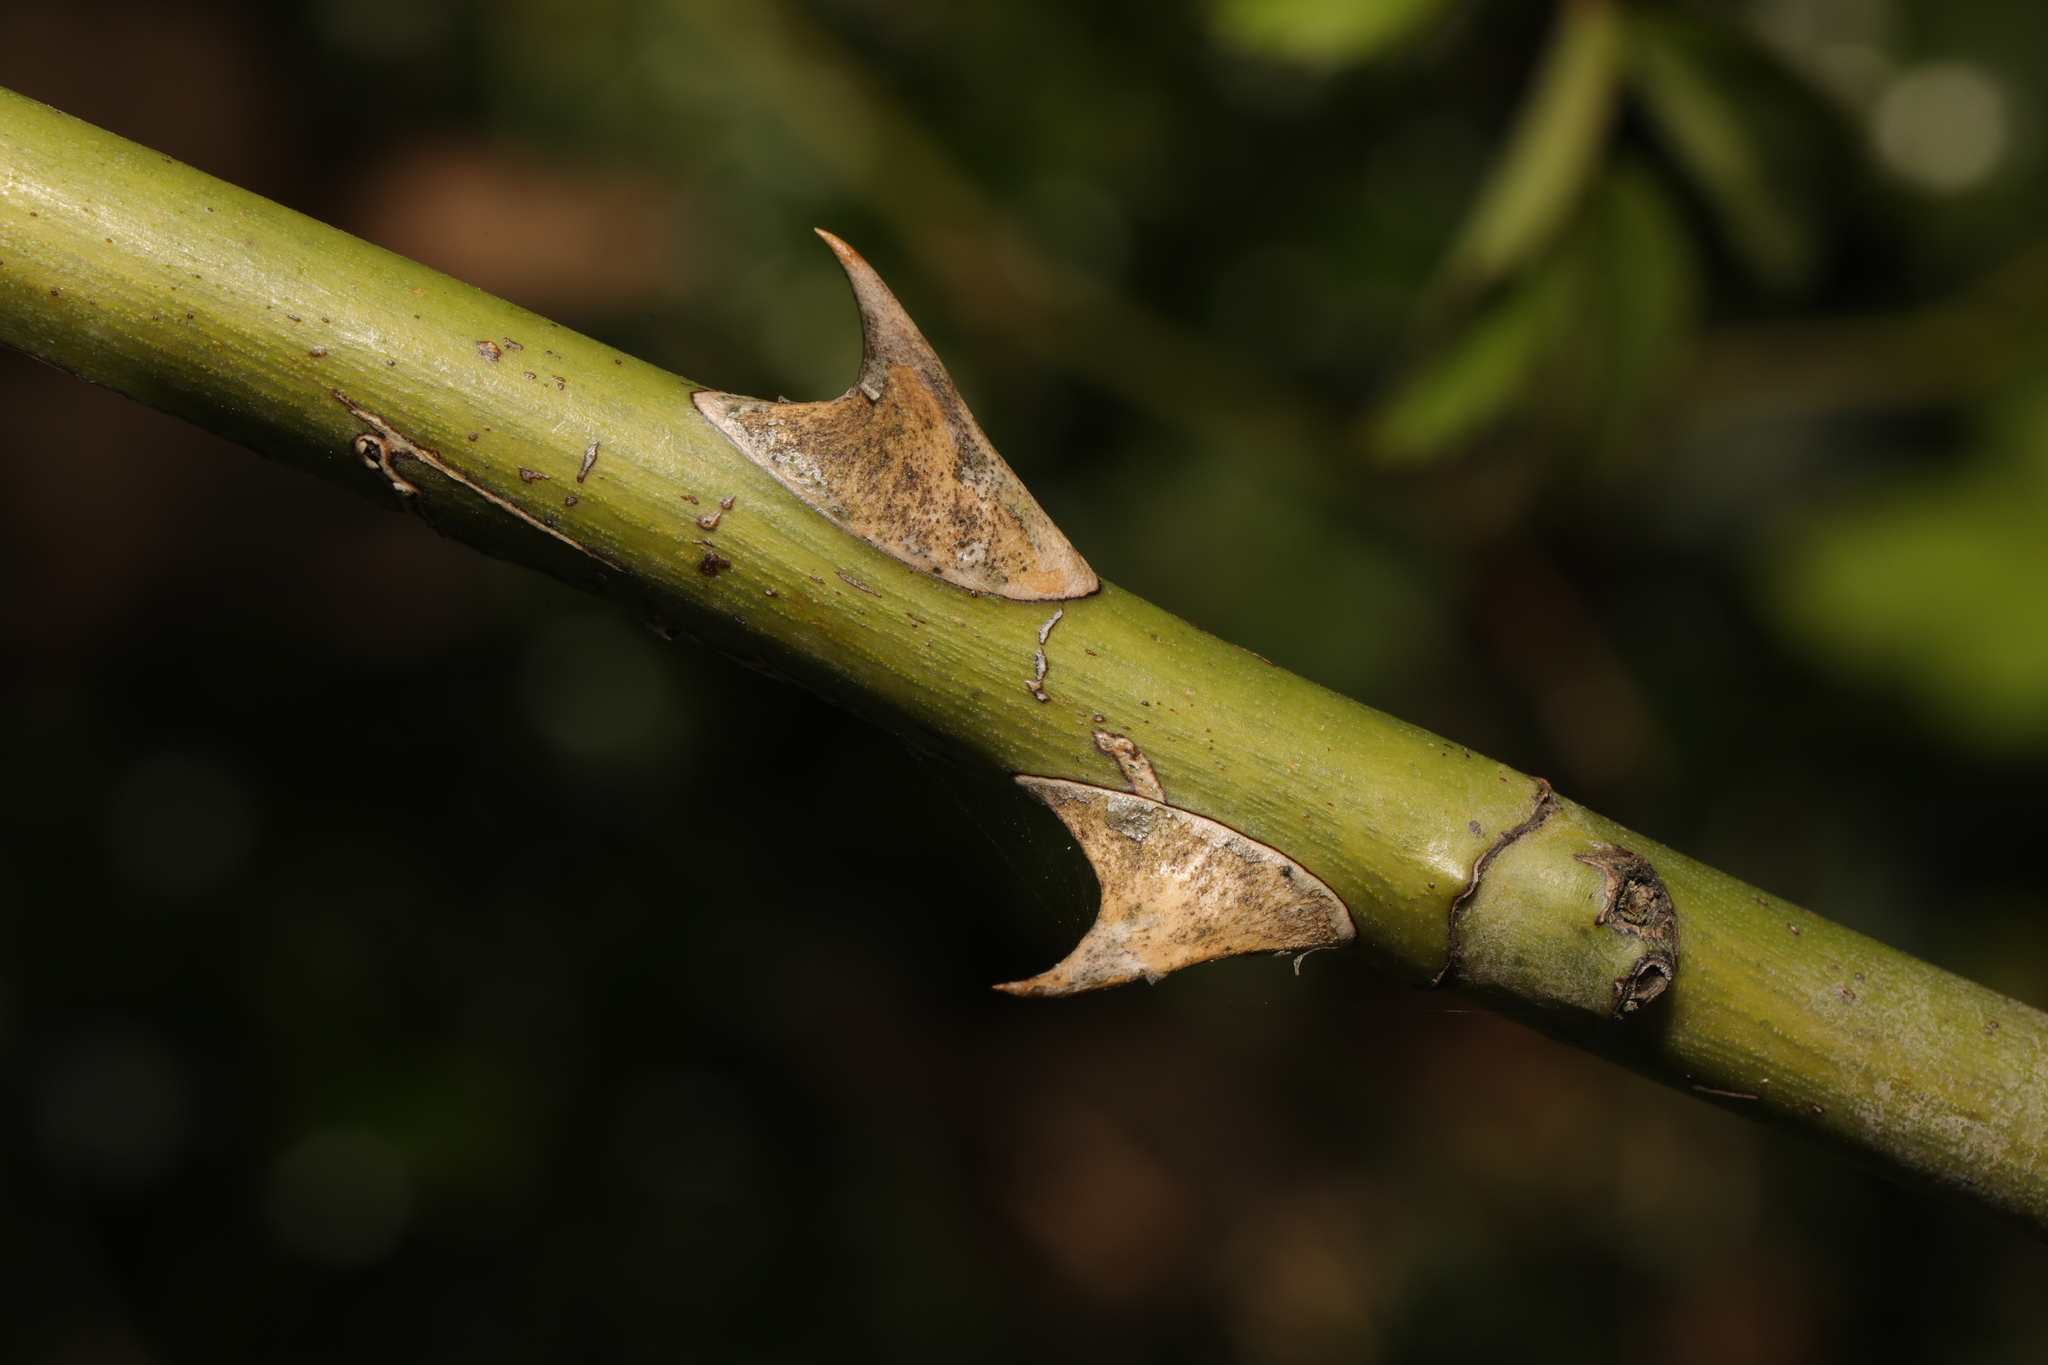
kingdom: Plantae
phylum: Tracheophyta
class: Magnoliopsida
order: Rosales
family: Rosaceae
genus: Rosa
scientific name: Rosa canina
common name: Dog rose
